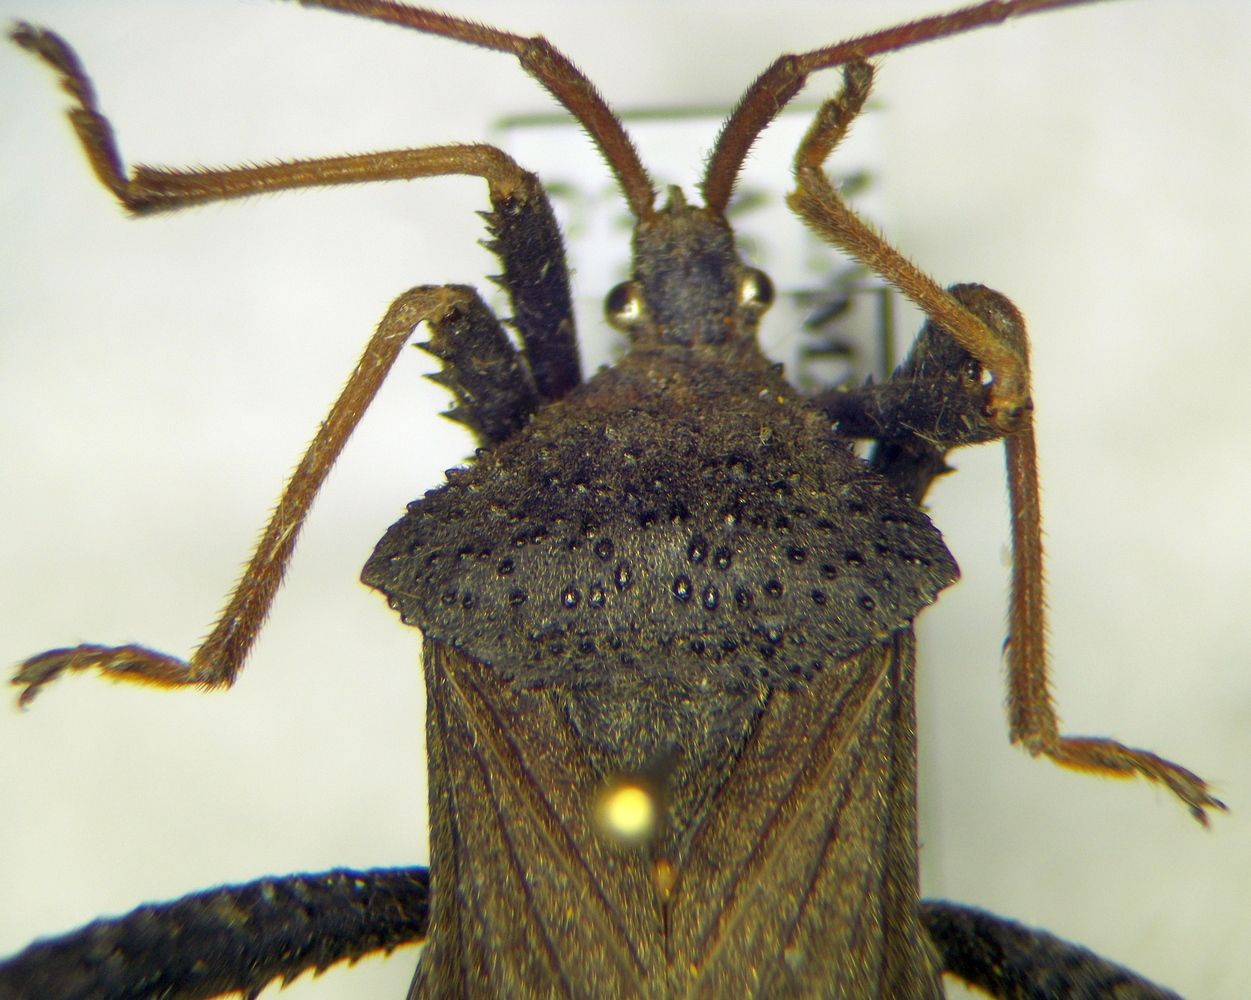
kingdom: Animalia
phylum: Arthropoda
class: Insecta
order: Hemiptera
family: Coreidae
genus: Acanthocephala
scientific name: Acanthocephala femorata
